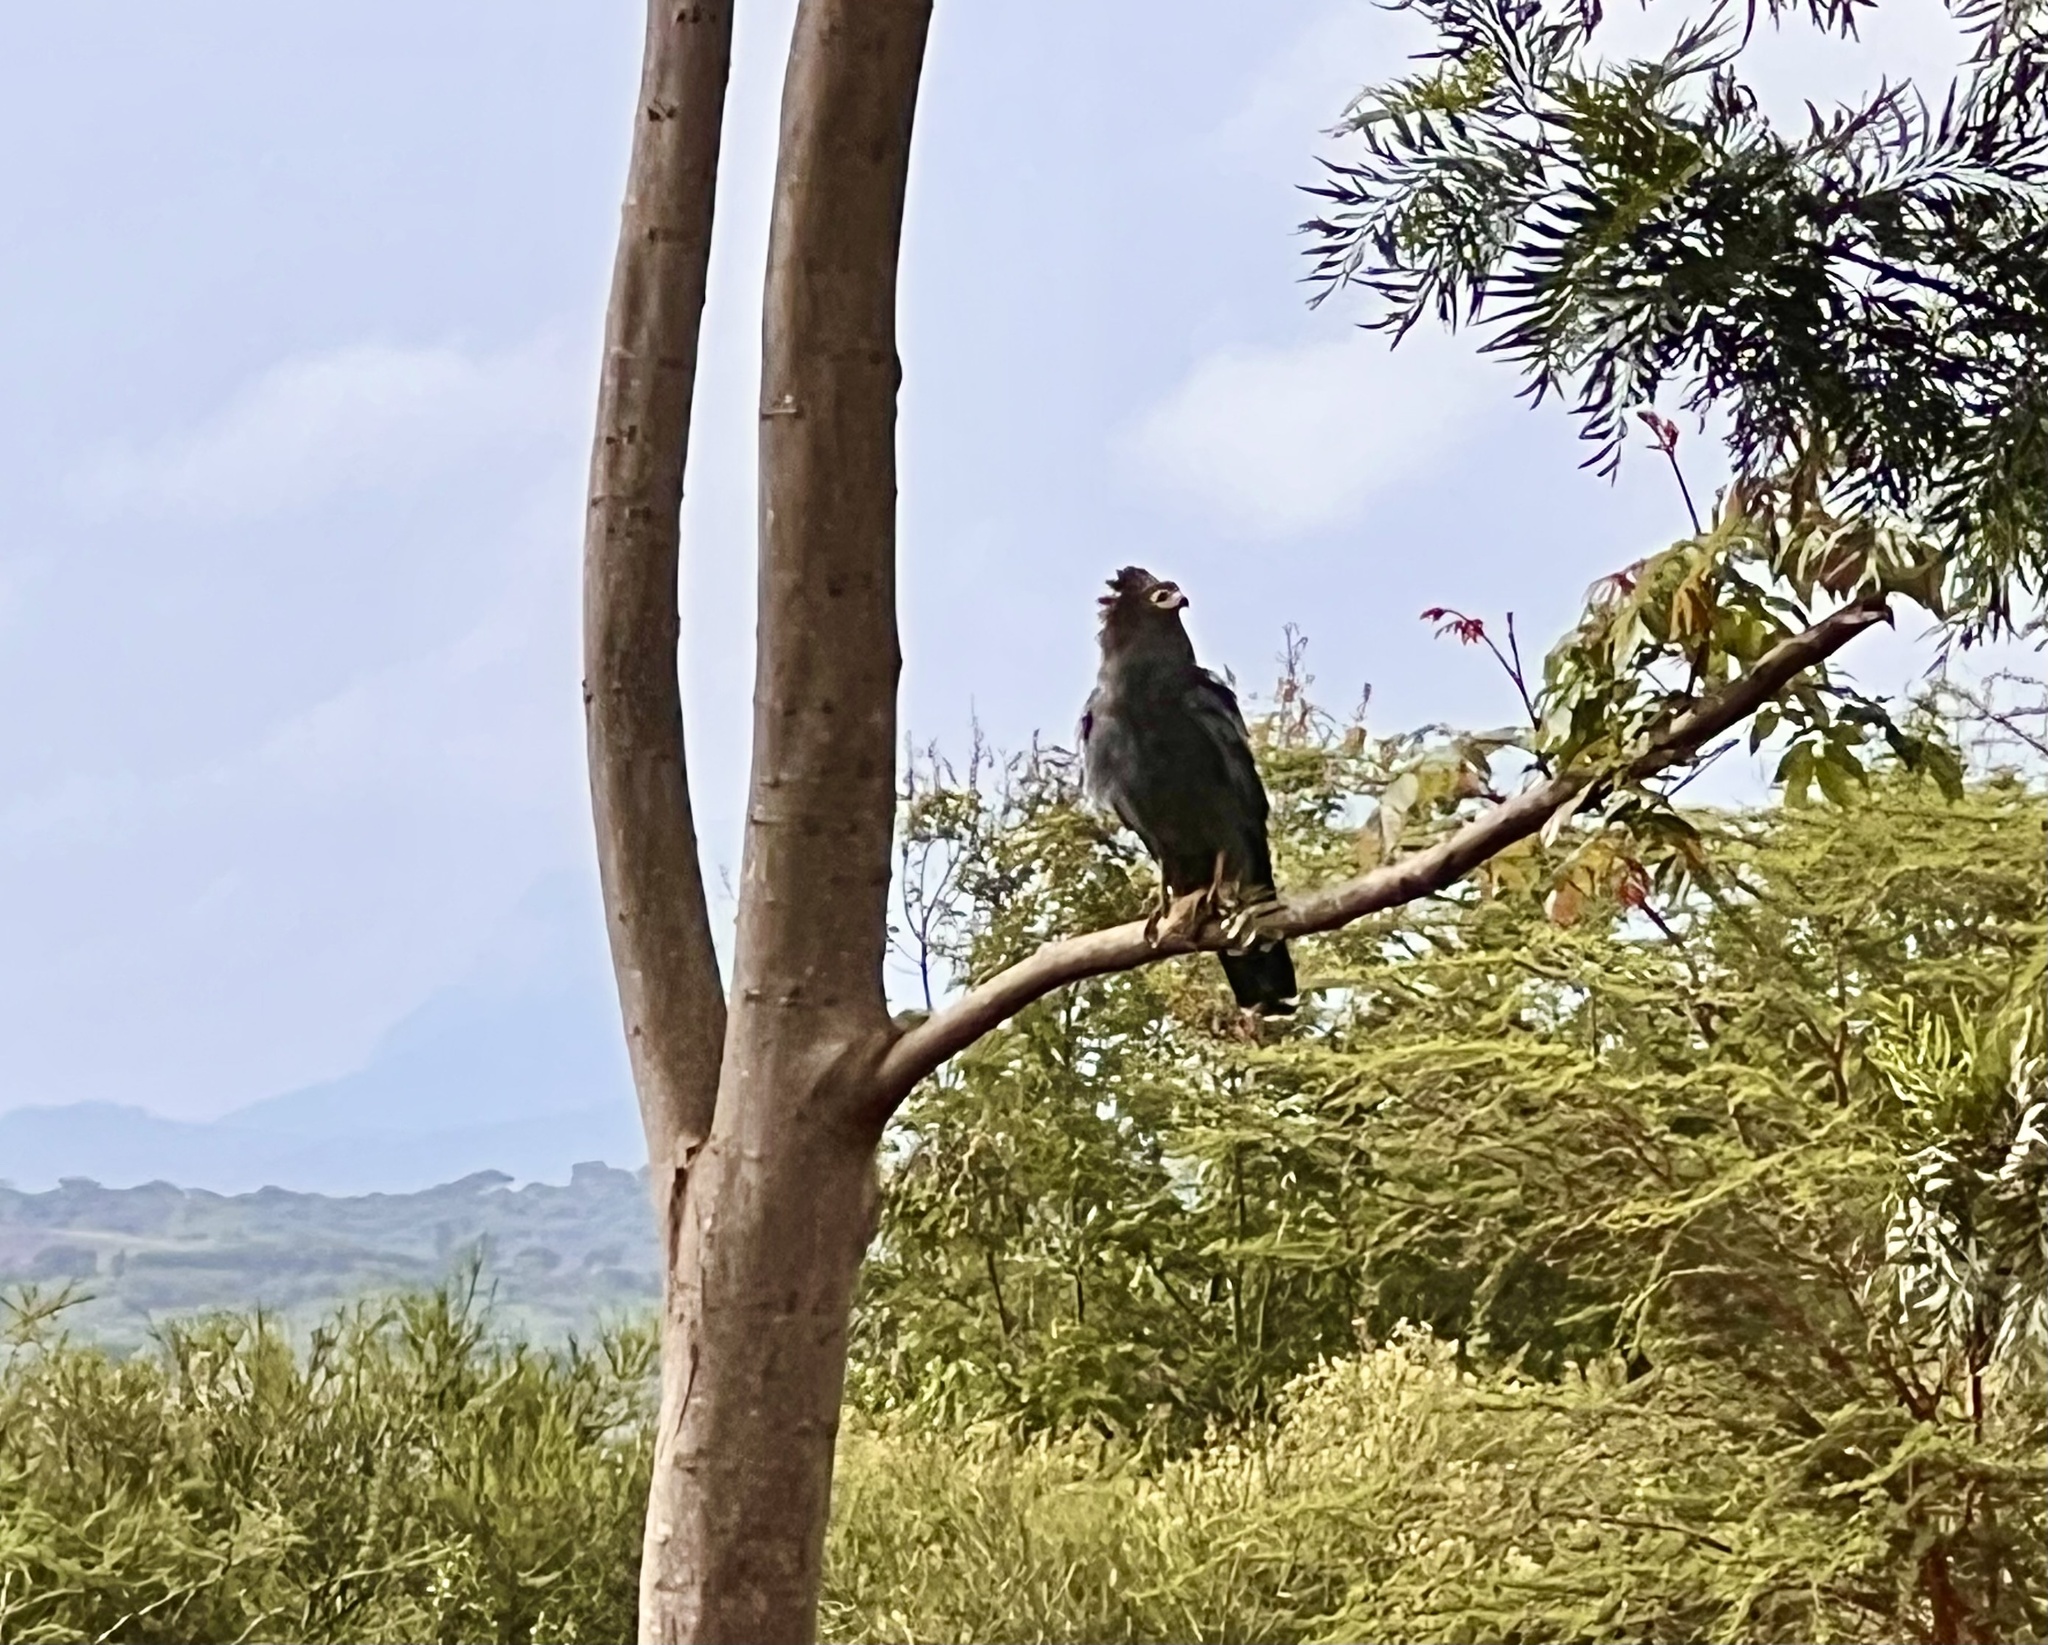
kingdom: Animalia
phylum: Chordata
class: Aves
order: Accipitriformes
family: Accipitridae
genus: Polyboroides
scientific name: Polyboroides typus
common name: African harrier-hawk
